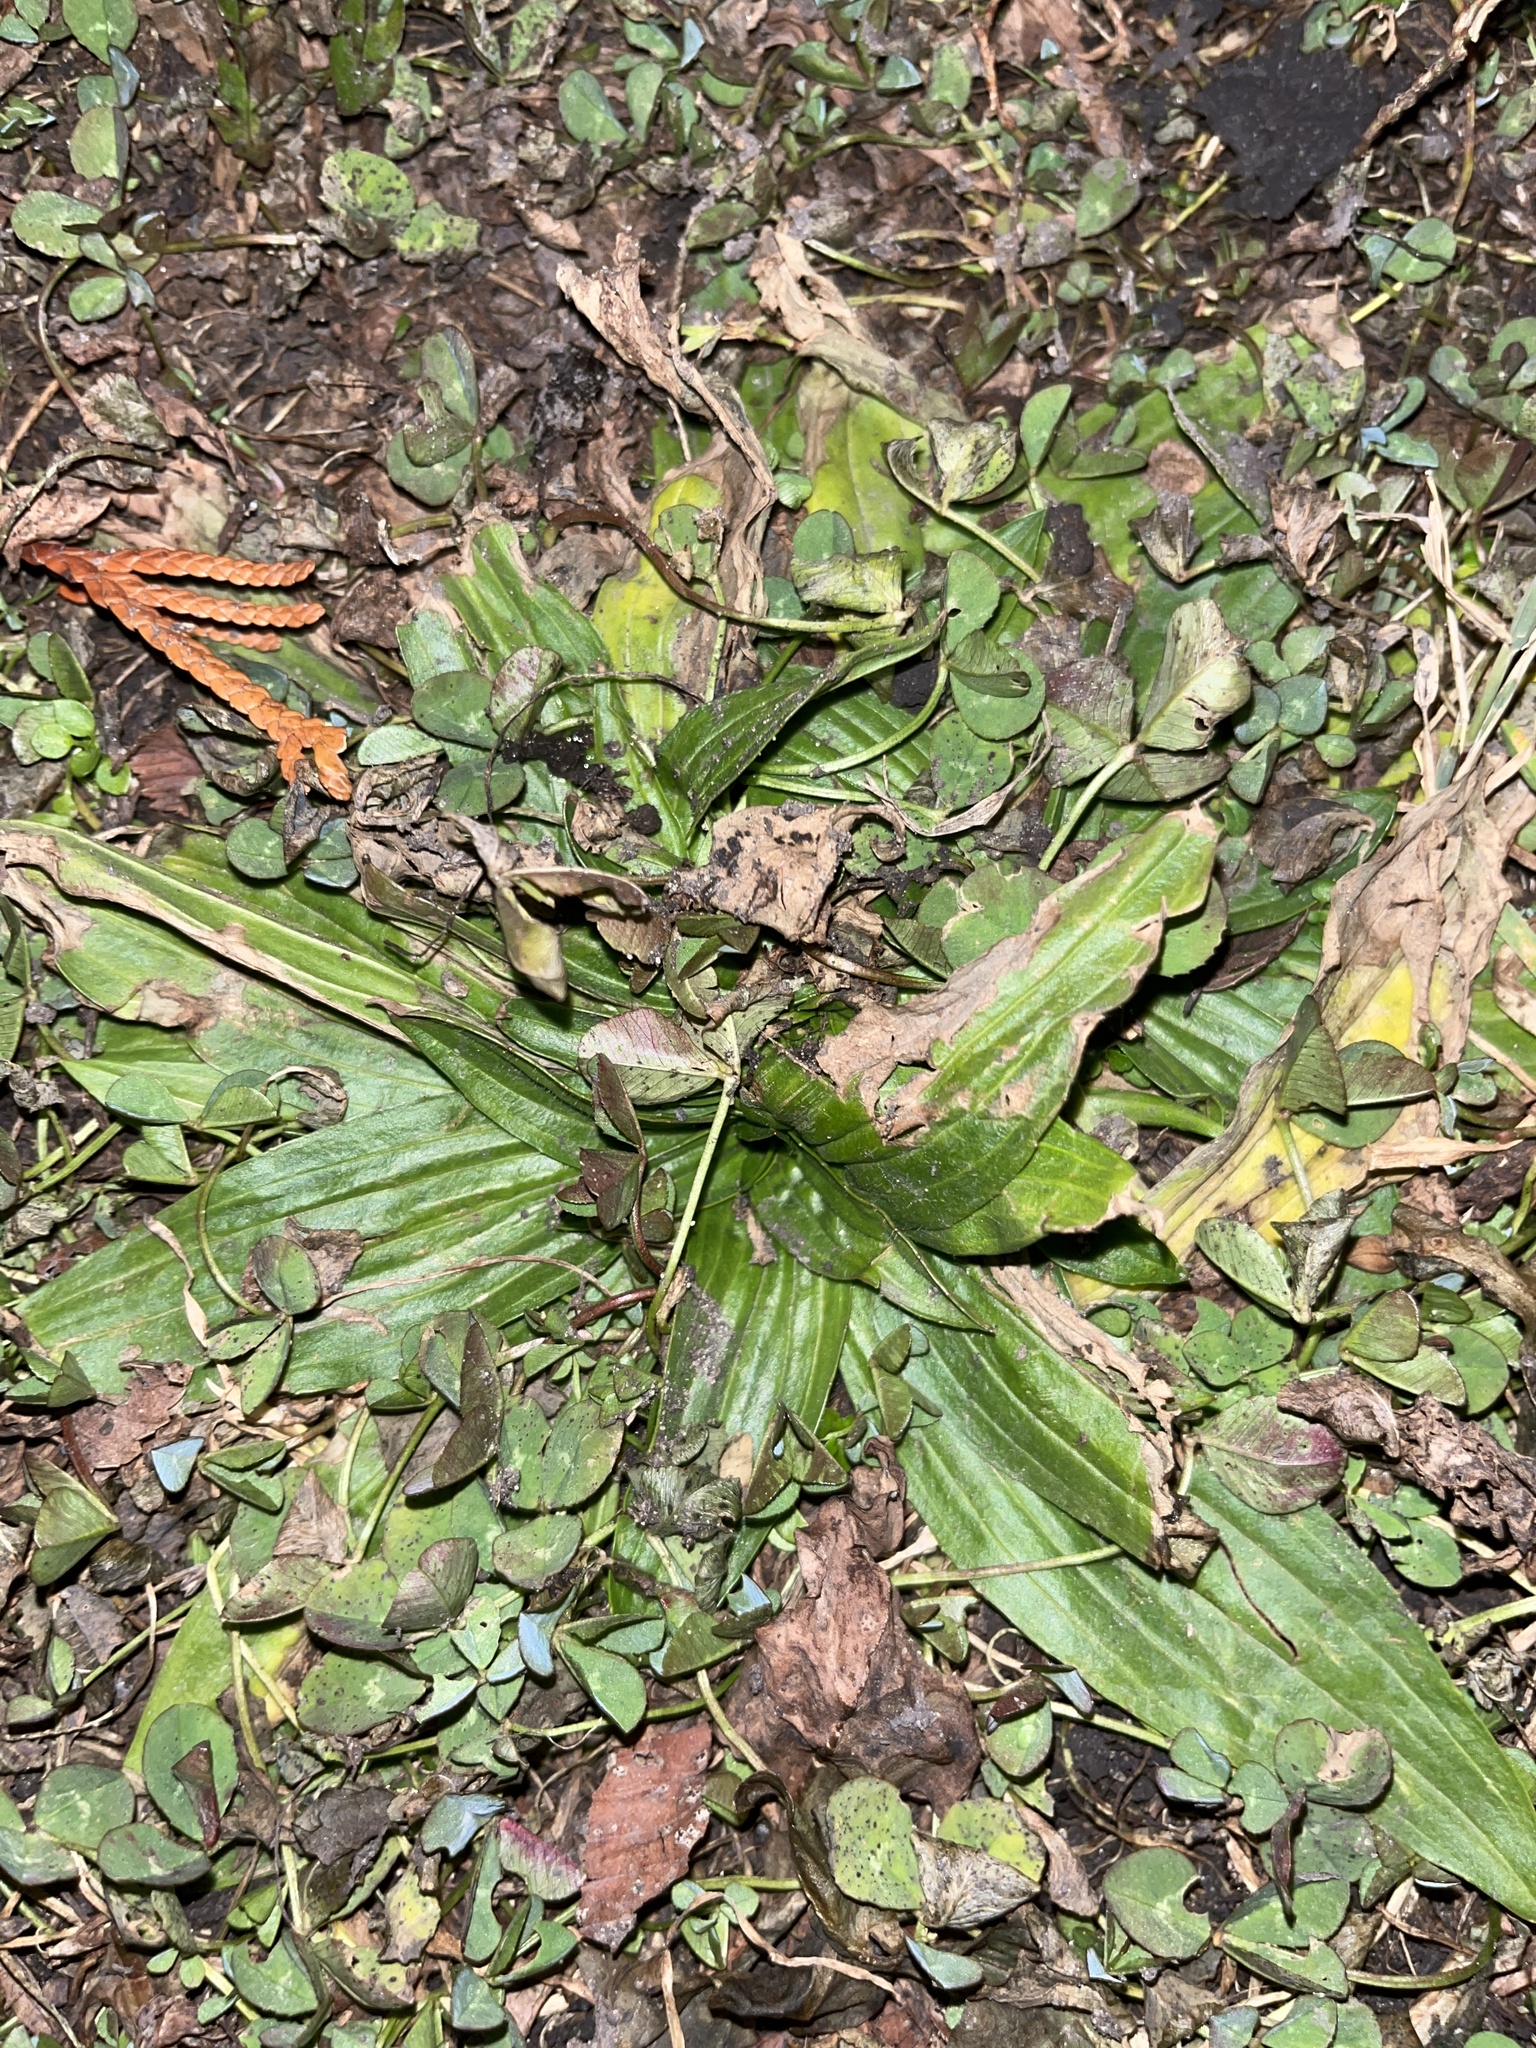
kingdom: Plantae
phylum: Tracheophyta
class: Magnoliopsida
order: Lamiales
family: Plantaginaceae
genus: Plantago
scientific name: Plantago lanceolata
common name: Ribwort plantain
